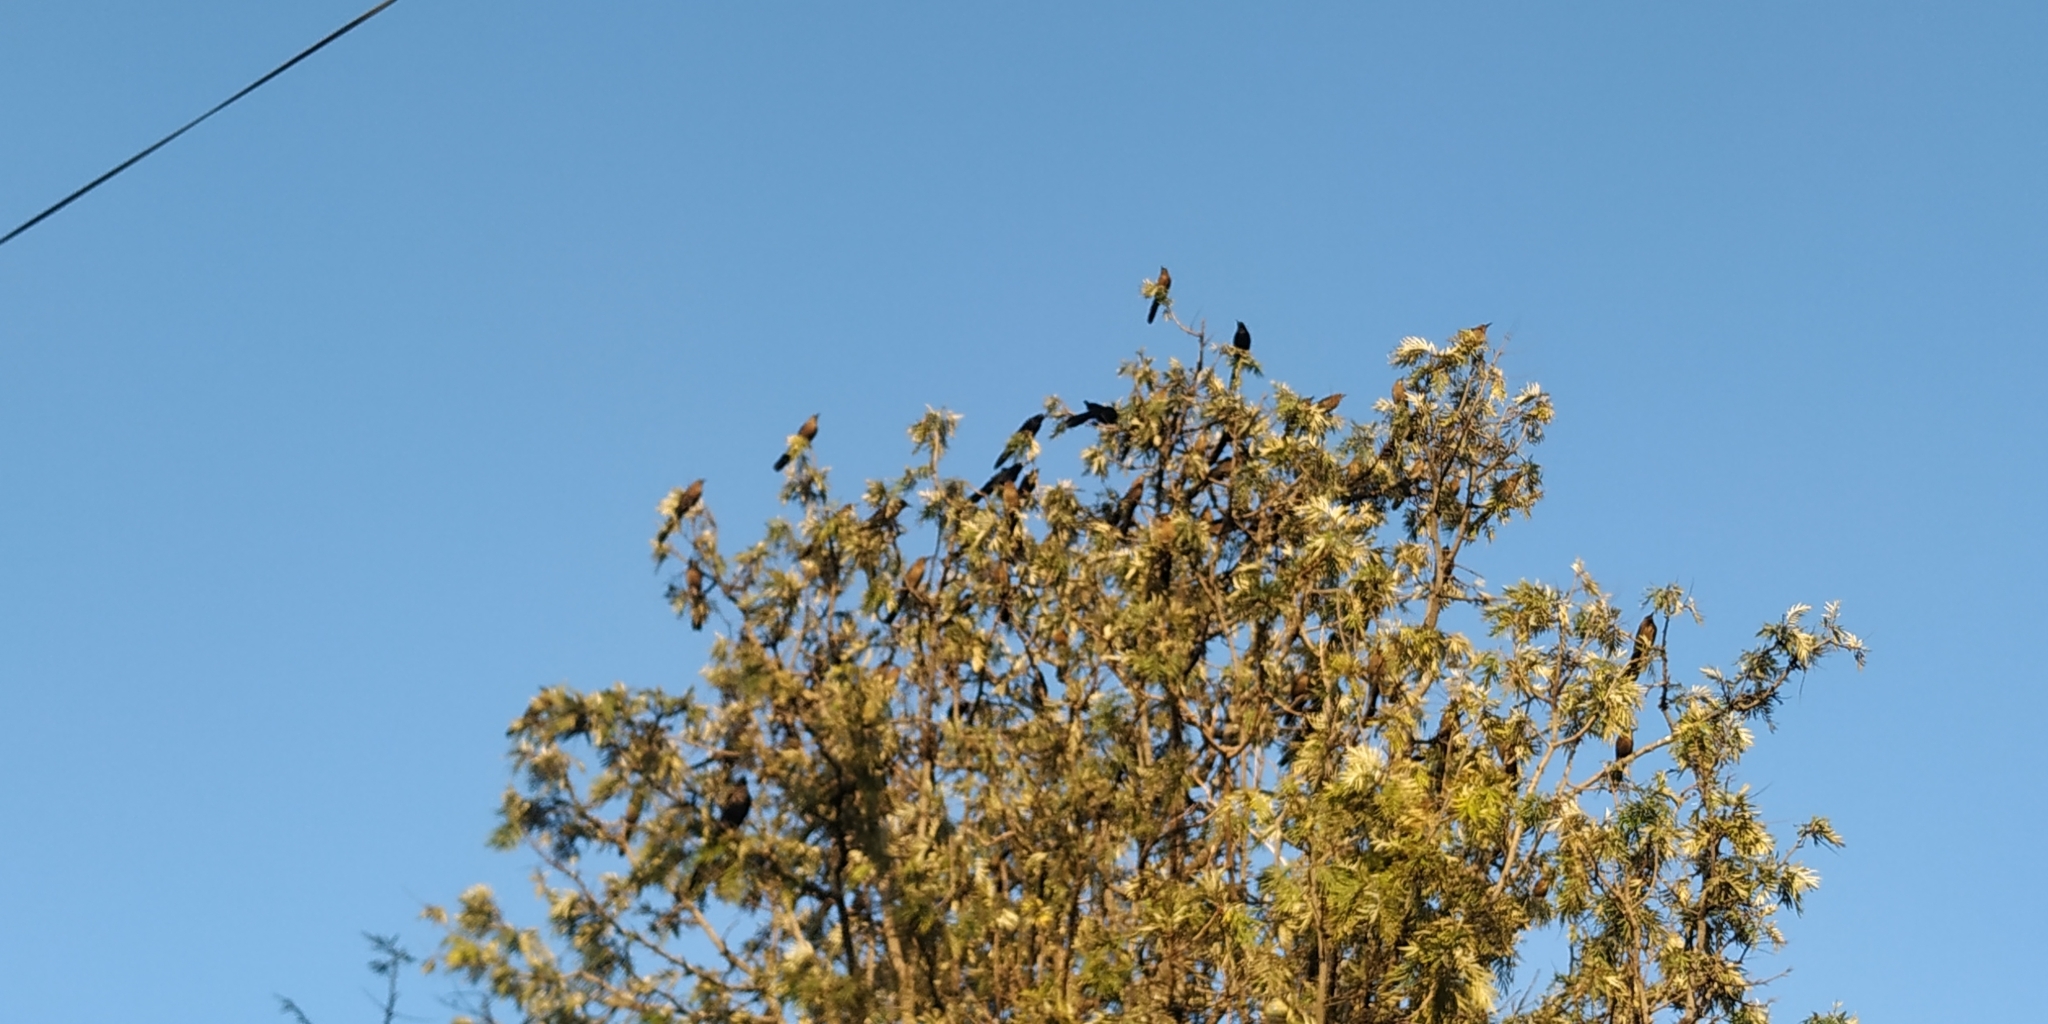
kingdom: Animalia
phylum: Chordata
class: Aves
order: Passeriformes
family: Icteridae
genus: Quiscalus
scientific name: Quiscalus mexicanus
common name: Great-tailed grackle
